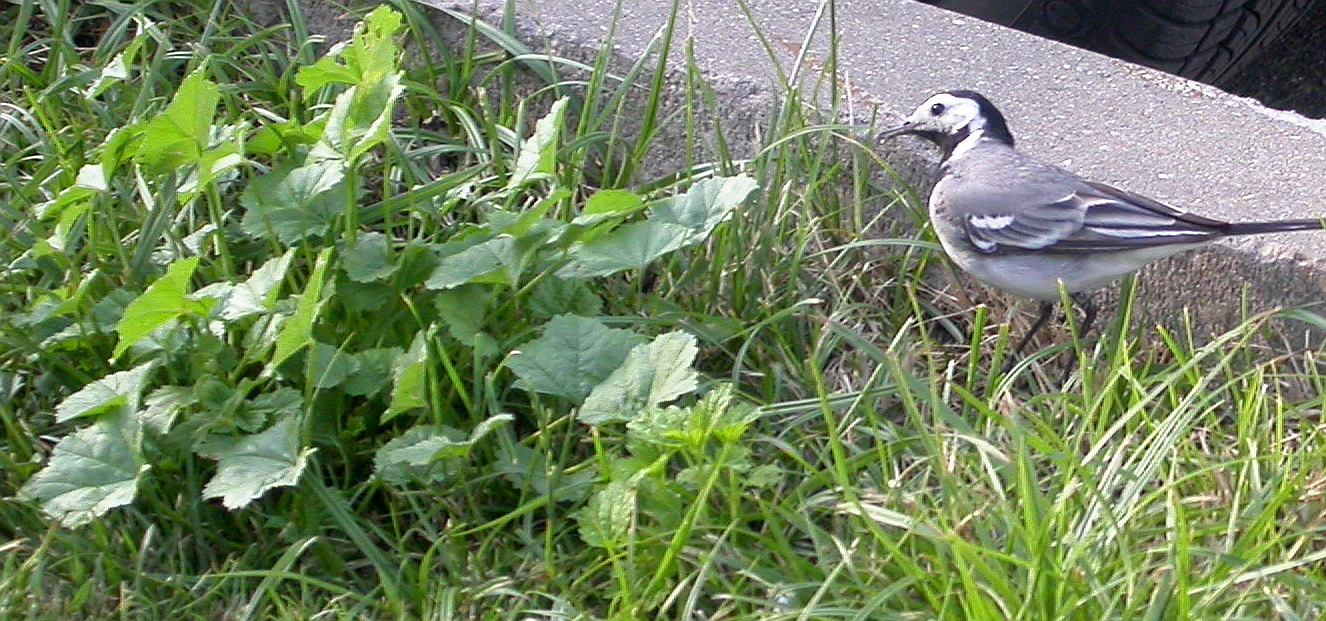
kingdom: Plantae
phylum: Tracheophyta
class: Magnoliopsida
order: Malvales
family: Malvaceae
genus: Malva
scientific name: Malva pusilla
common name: Small mallow
